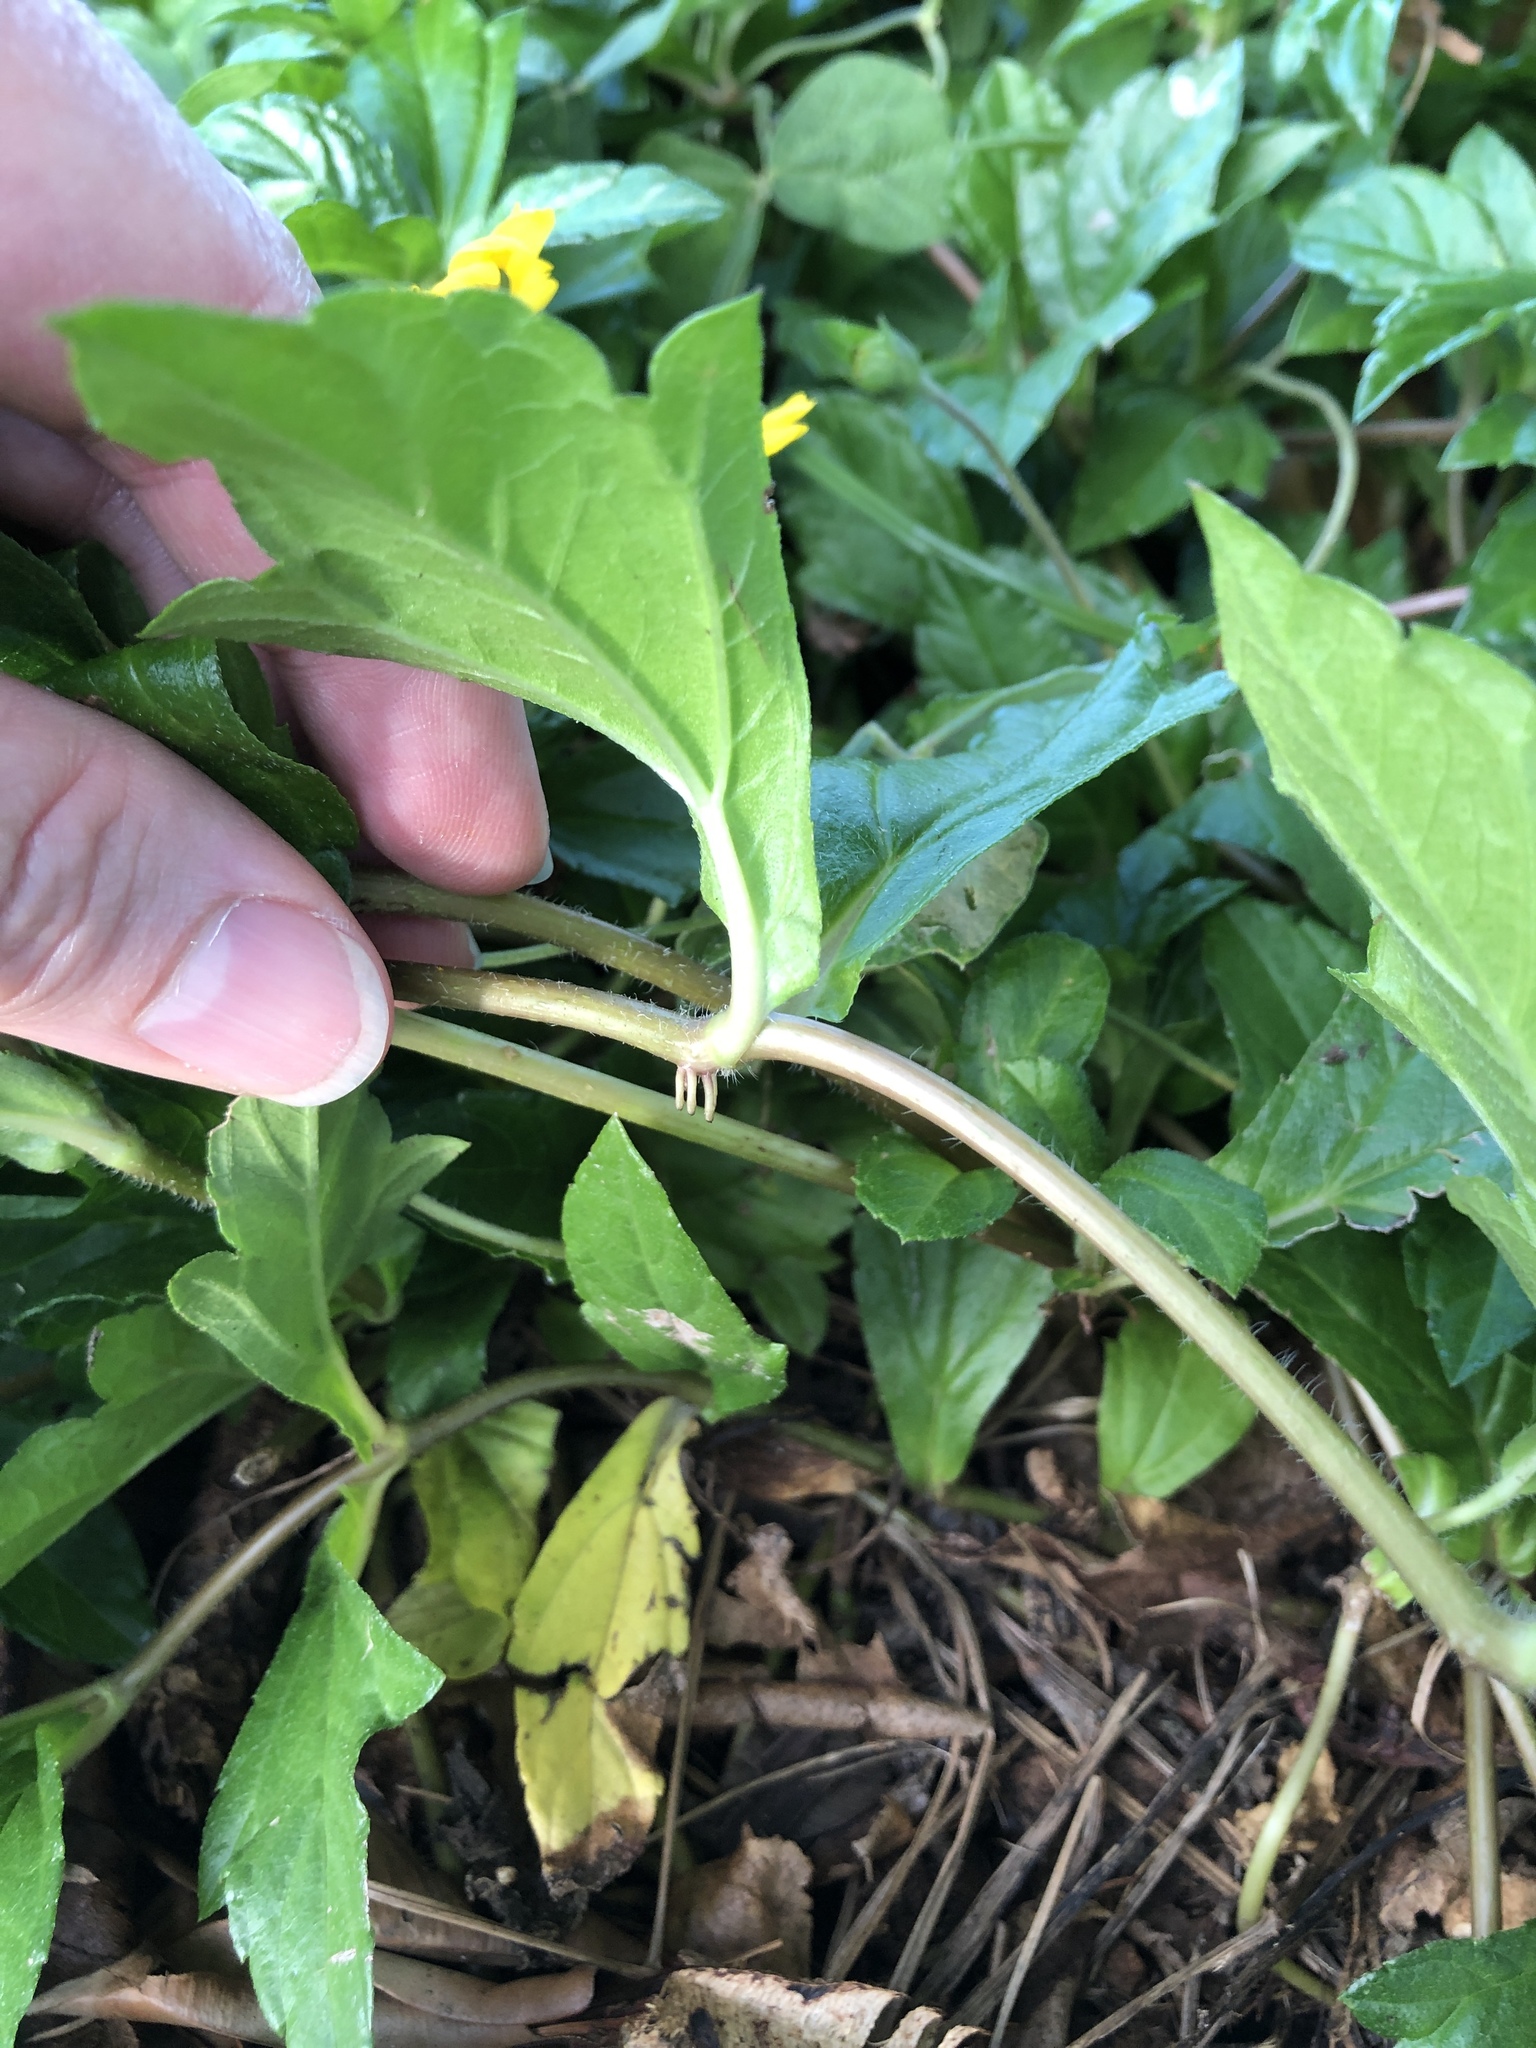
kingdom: Plantae
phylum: Tracheophyta
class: Magnoliopsida
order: Asterales
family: Asteraceae
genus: Sphagneticola
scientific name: Sphagneticola trilobata
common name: Bay biscayne creeping-oxeye
